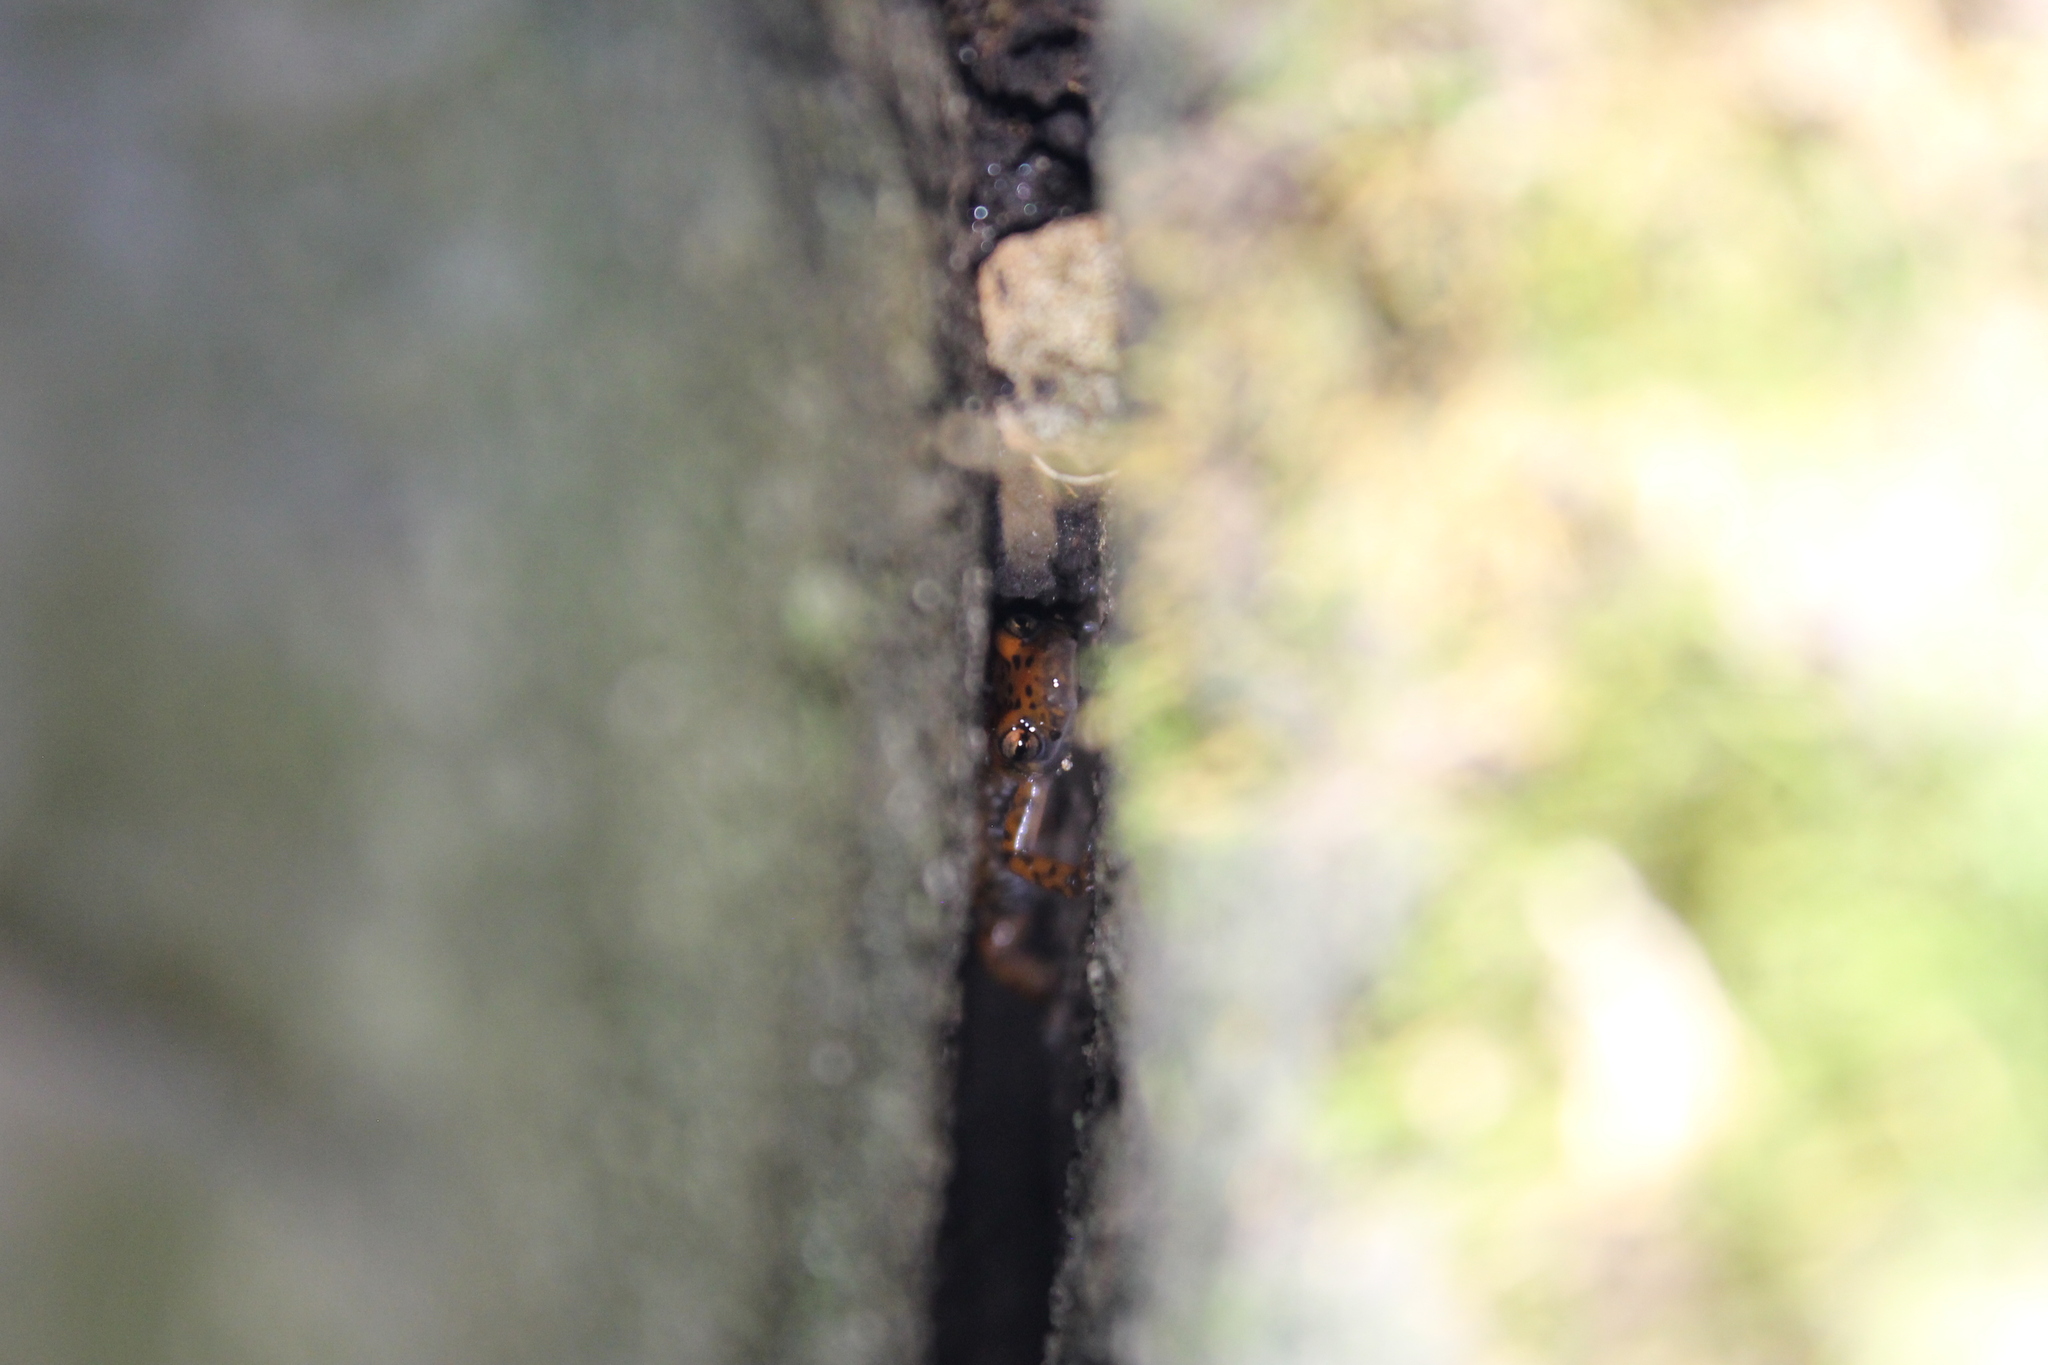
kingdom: Animalia
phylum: Chordata
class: Amphibia
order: Caudata
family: Plethodontidae
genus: Eurycea
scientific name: Eurycea lucifuga
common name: Cave salamander
